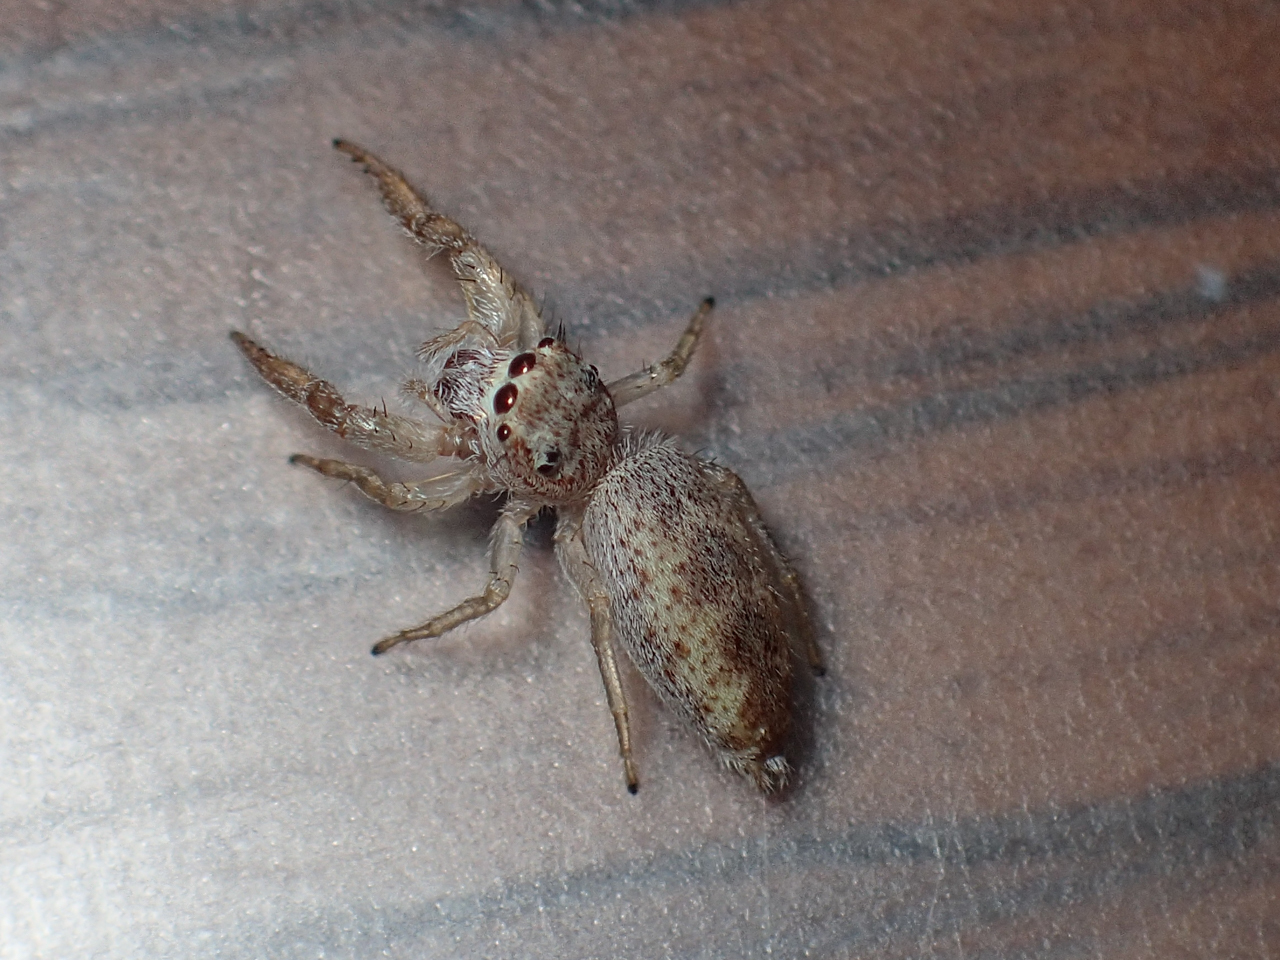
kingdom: Animalia
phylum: Arthropoda
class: Arachnida
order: Araneae
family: Salticidae
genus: Hentzia
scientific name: Hentzia mitrata
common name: White-jawed jumping spider
